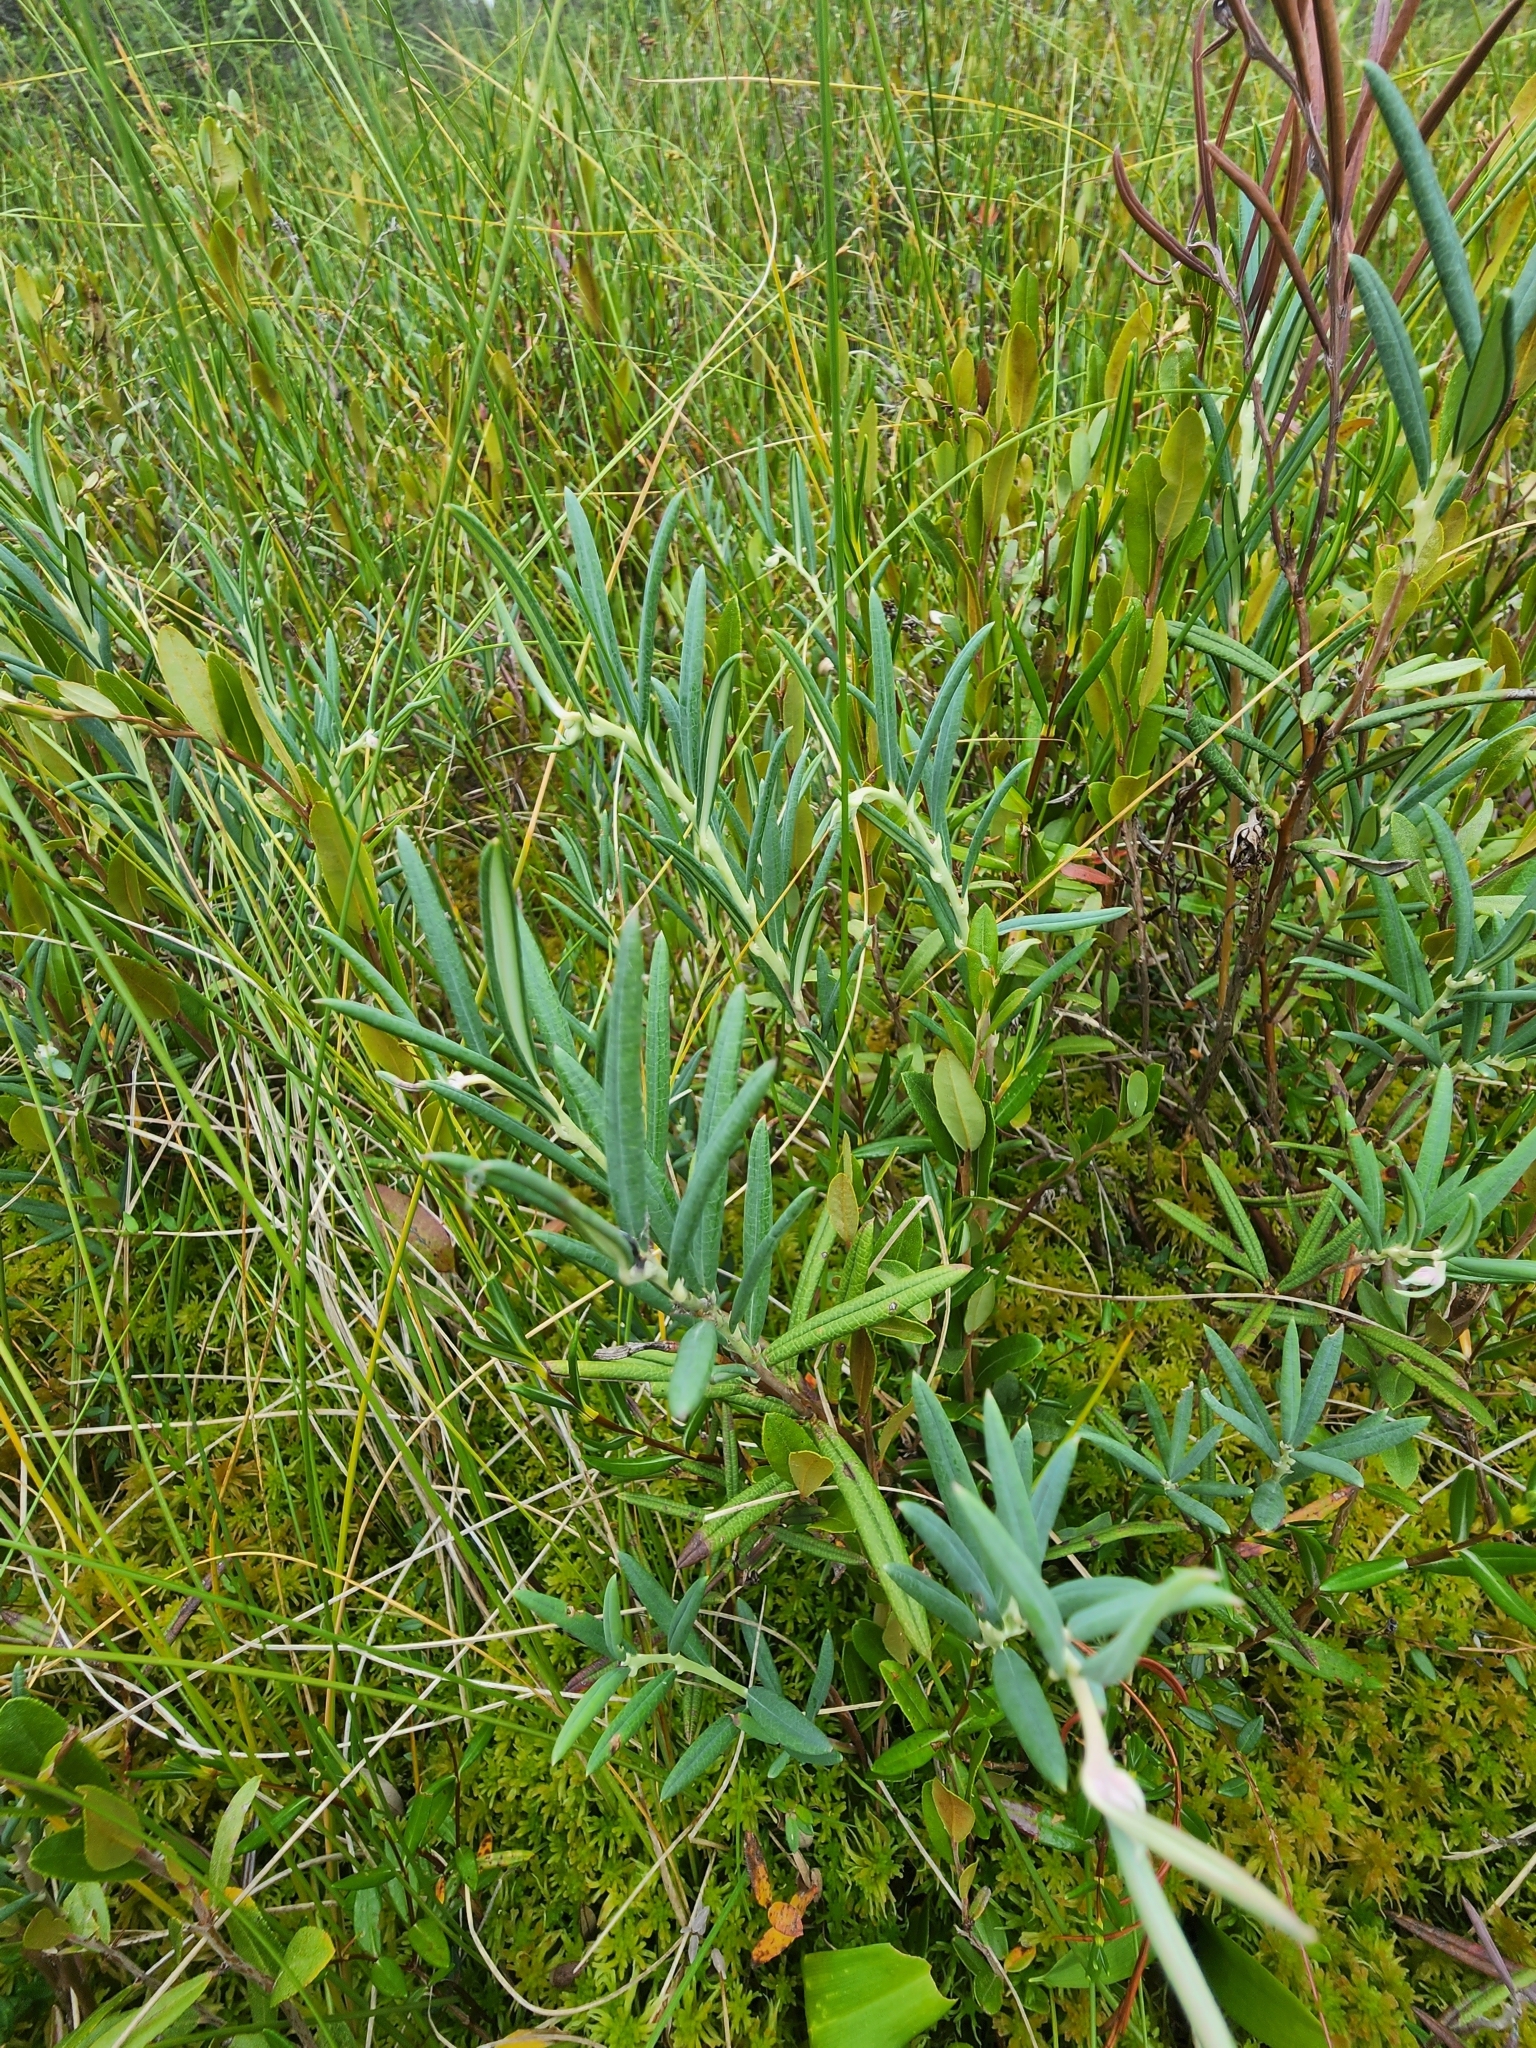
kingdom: Plantae
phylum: Tracheophyta
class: Magnoliopsida
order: Ericales
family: Ericaceae
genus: Andromeda
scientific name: Andromeda polifolia
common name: Bog-rosemary
